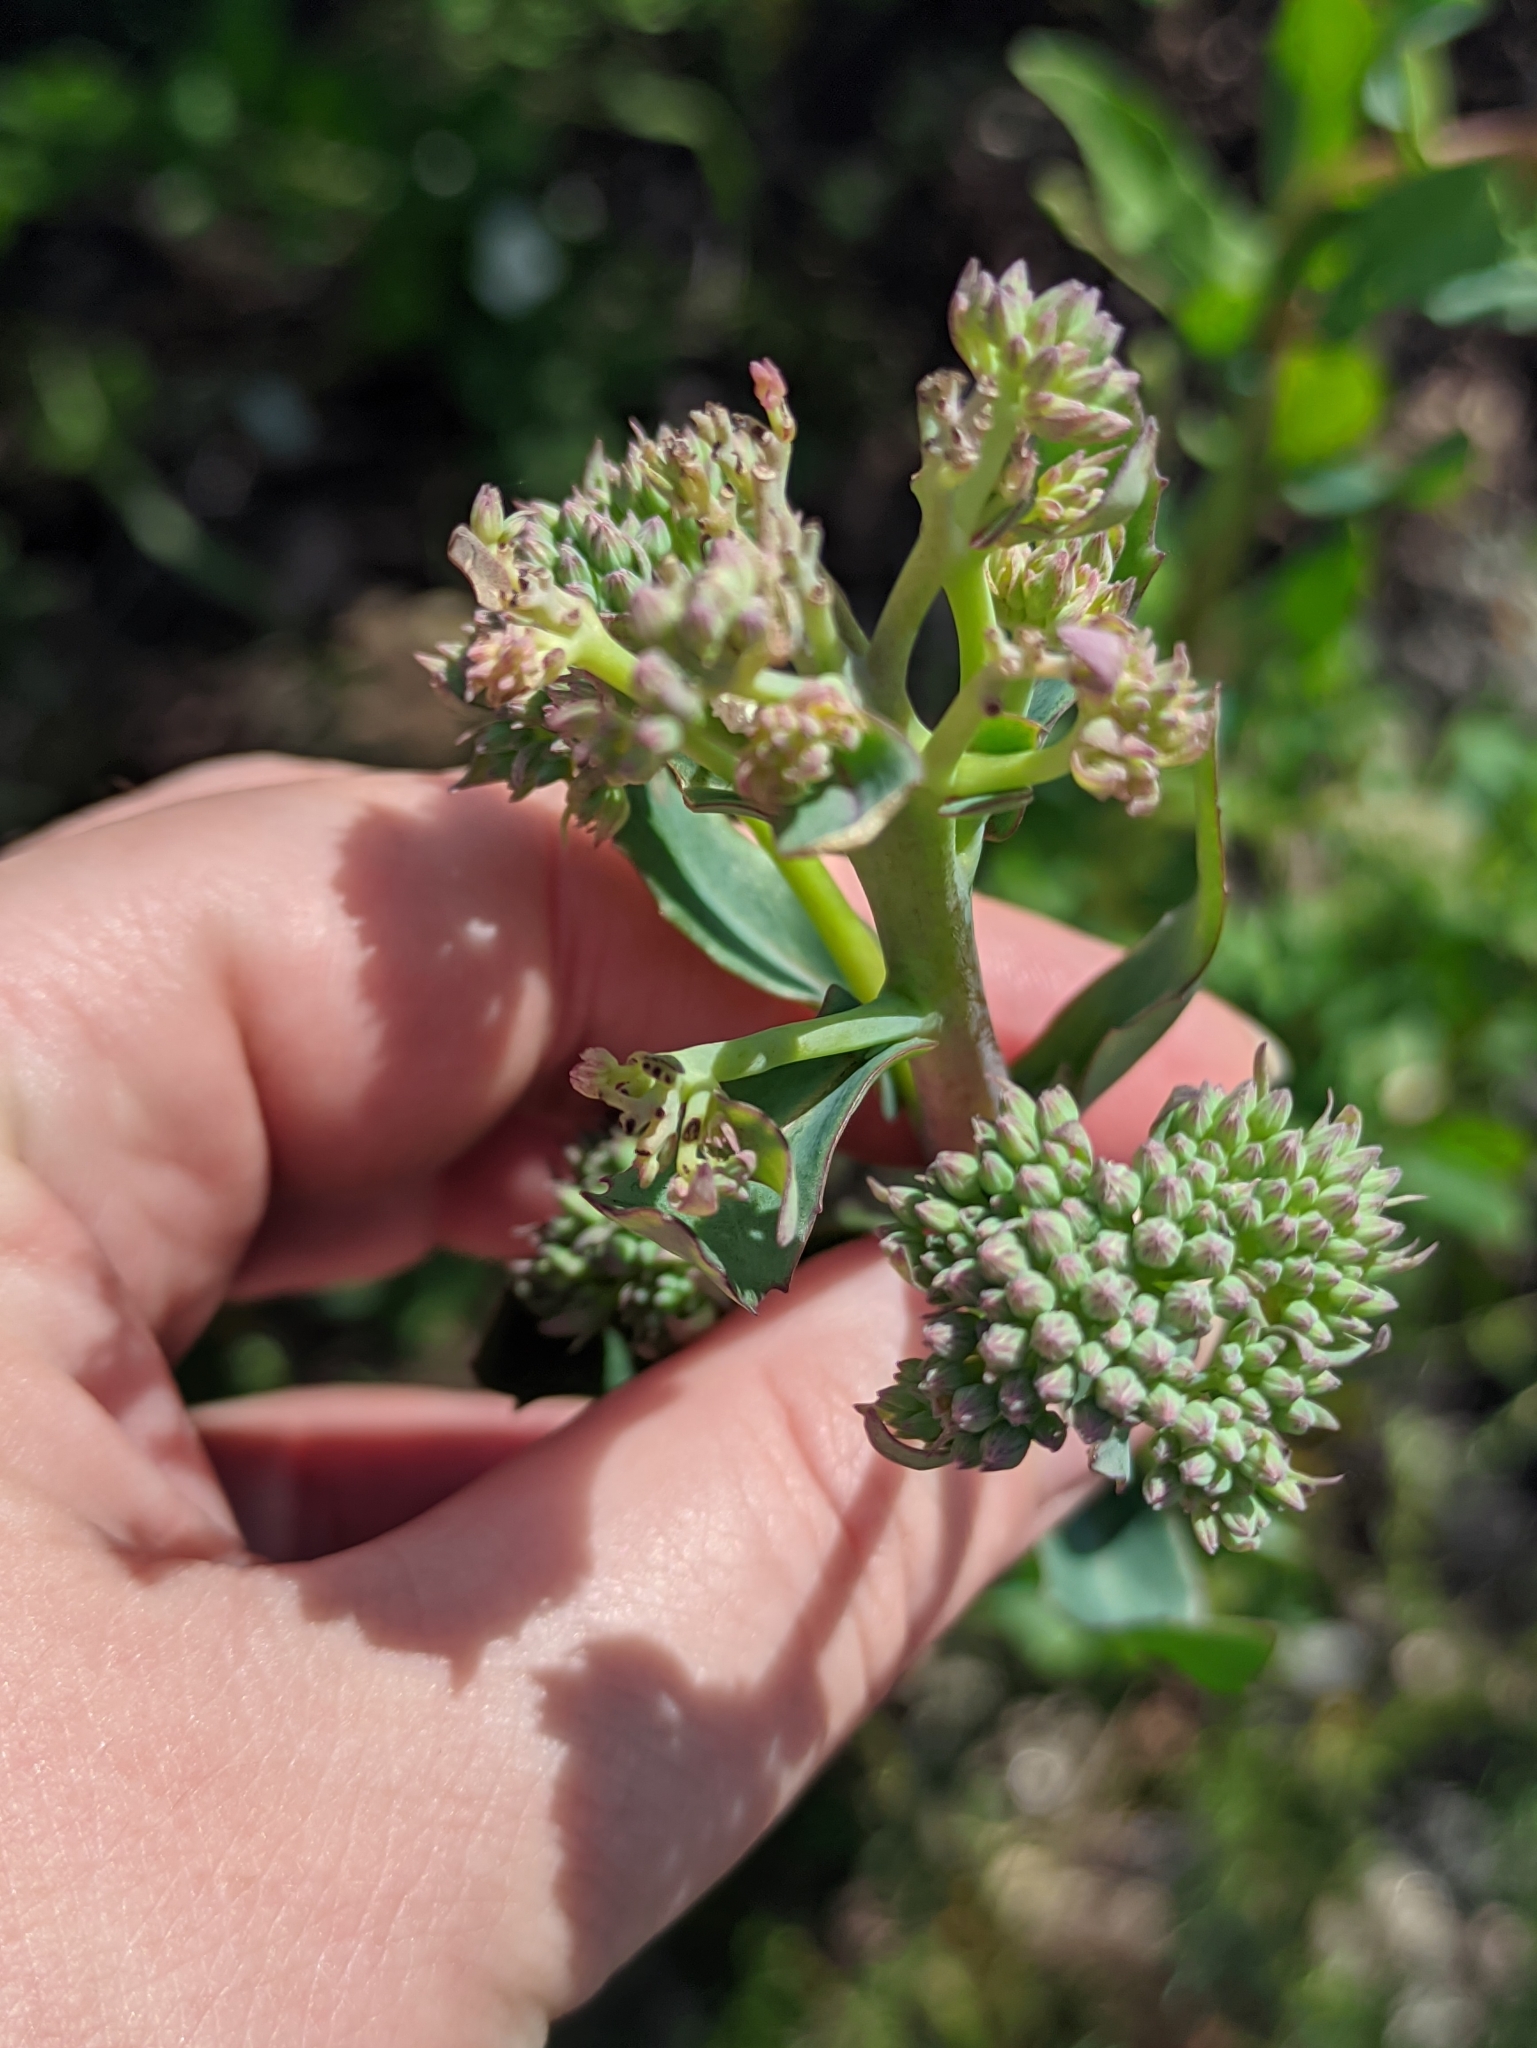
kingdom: Plantae
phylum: Tracheophyta
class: Magnoliopsida
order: Saxifragales
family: Crassulaceae
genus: Hylotelephium
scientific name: Hylotelephium telephium
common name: Live-forever
